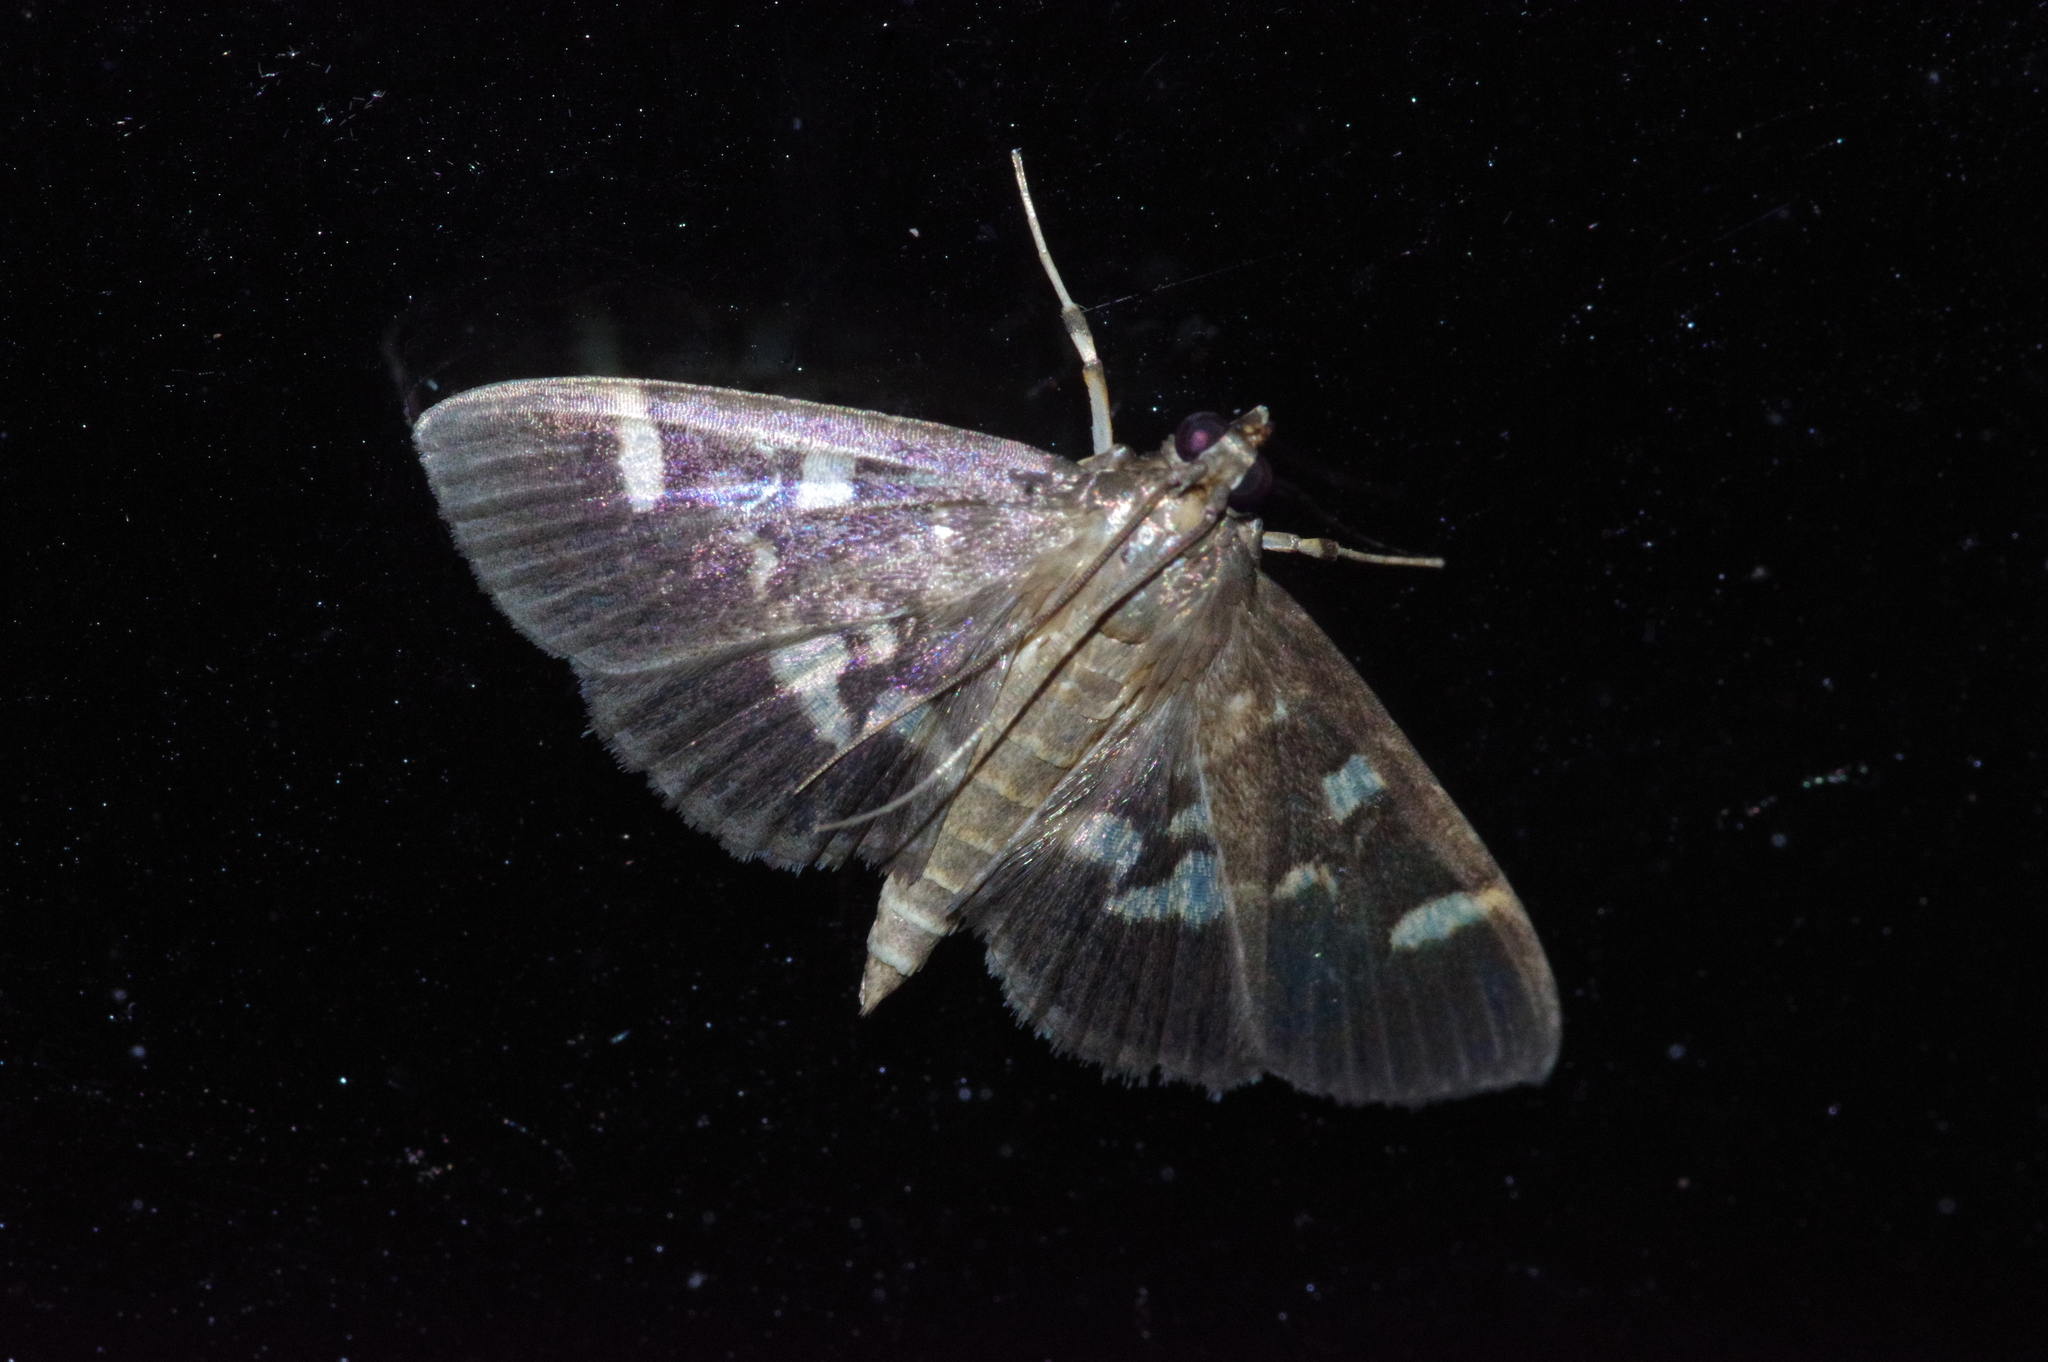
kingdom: Animalia
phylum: Arthropoda
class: Insecta
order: Lepidoptera
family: Crambidae
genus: Herpetogramma
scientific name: Herpetogramma luctuosalis
